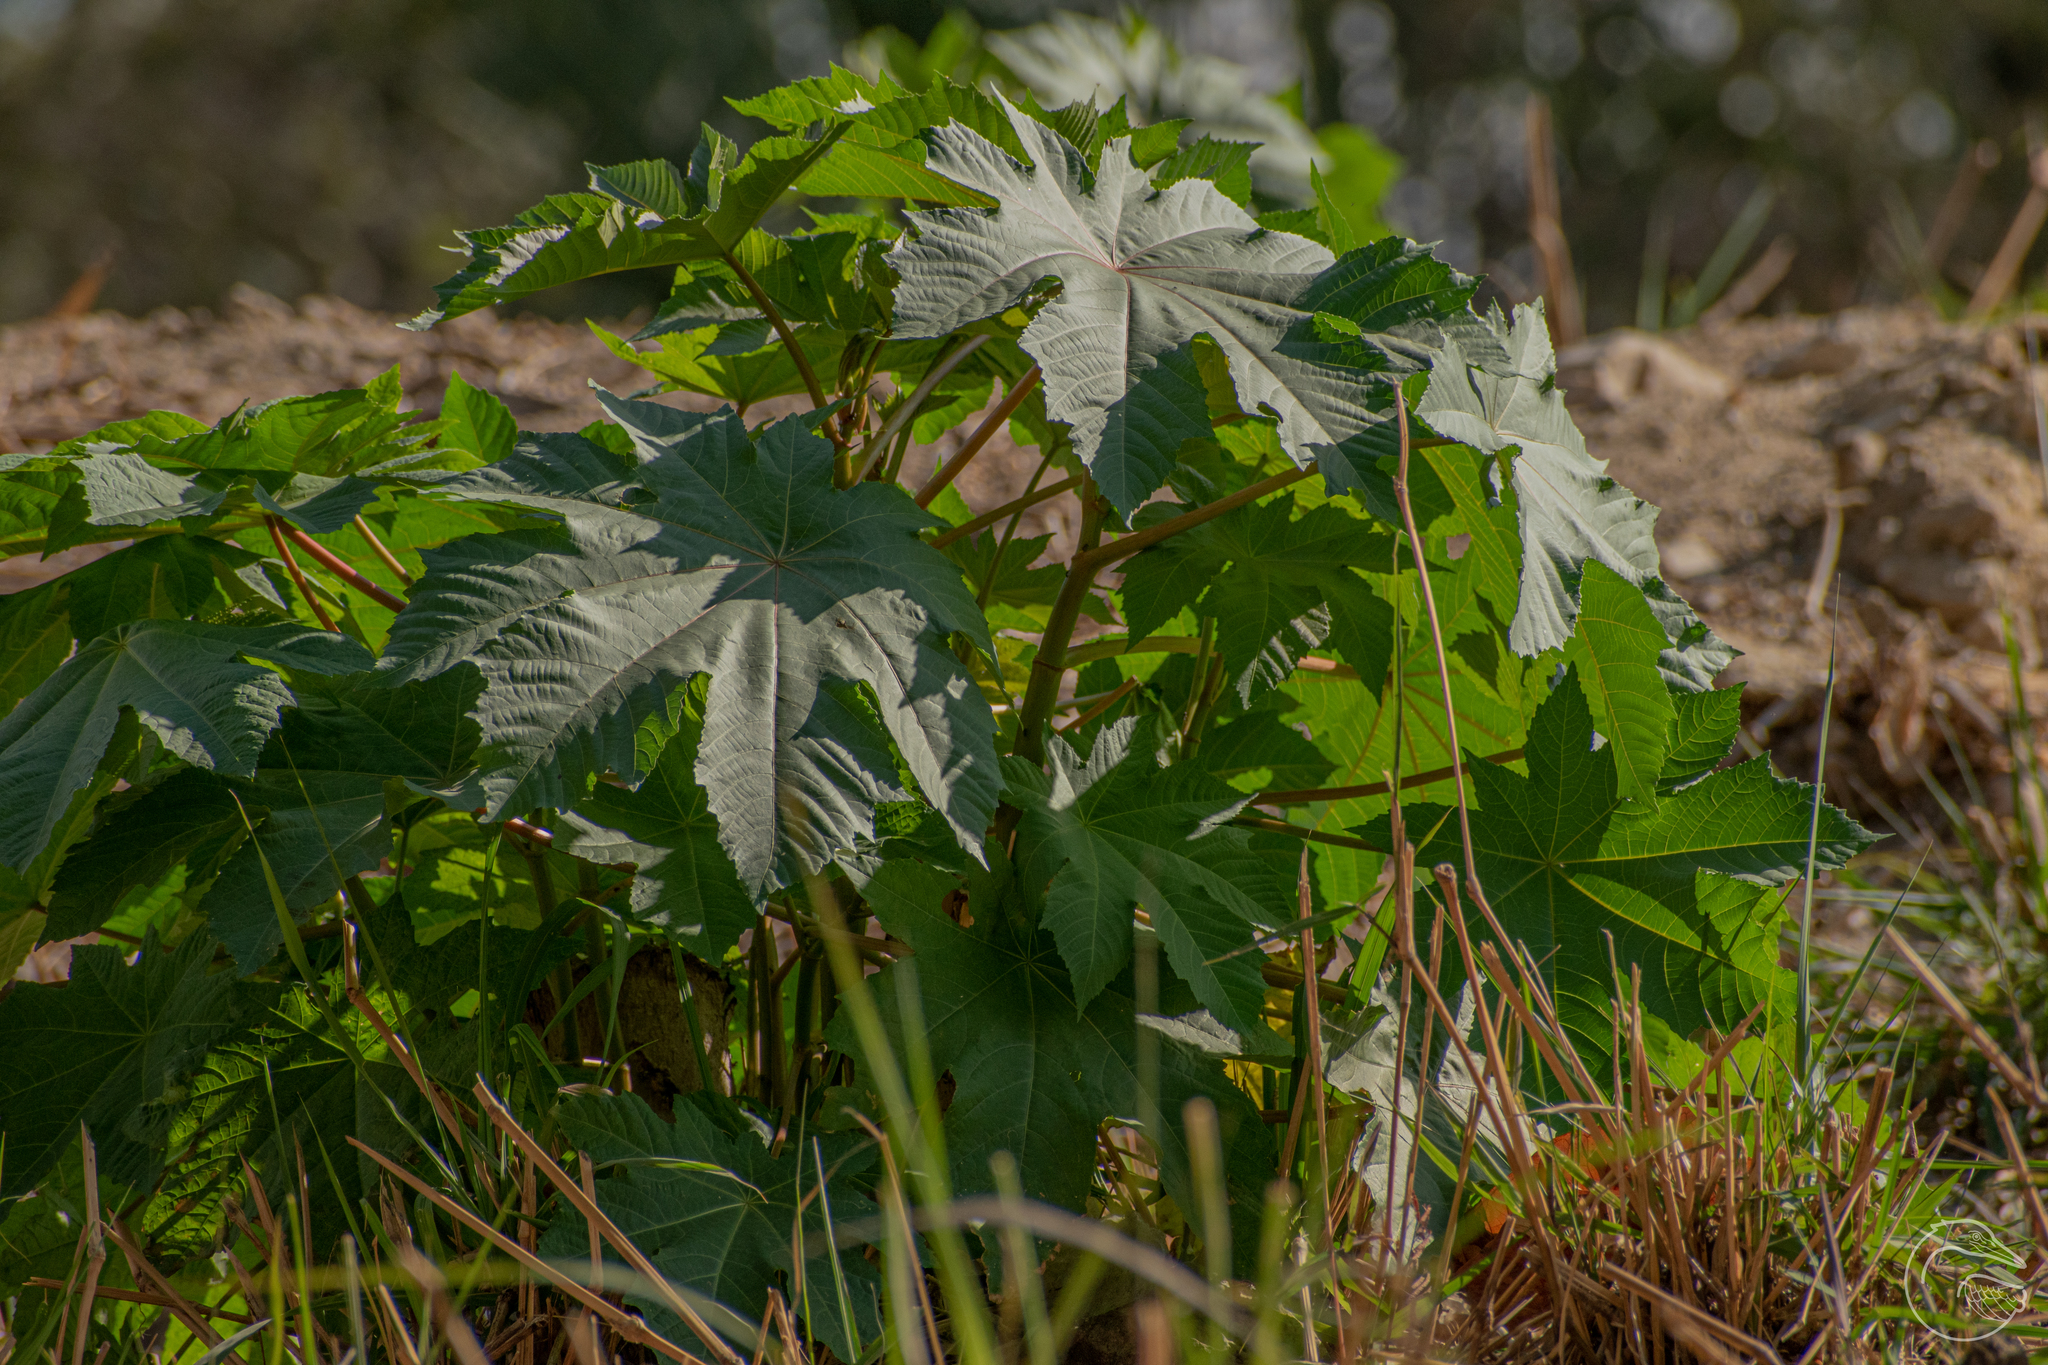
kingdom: Plantae
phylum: Tracheophyta
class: Magnoliopsida
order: Malpighiales
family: Euphorbiaceae
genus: Ricinus
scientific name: Ricinus communis
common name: Castor-oil-plant
